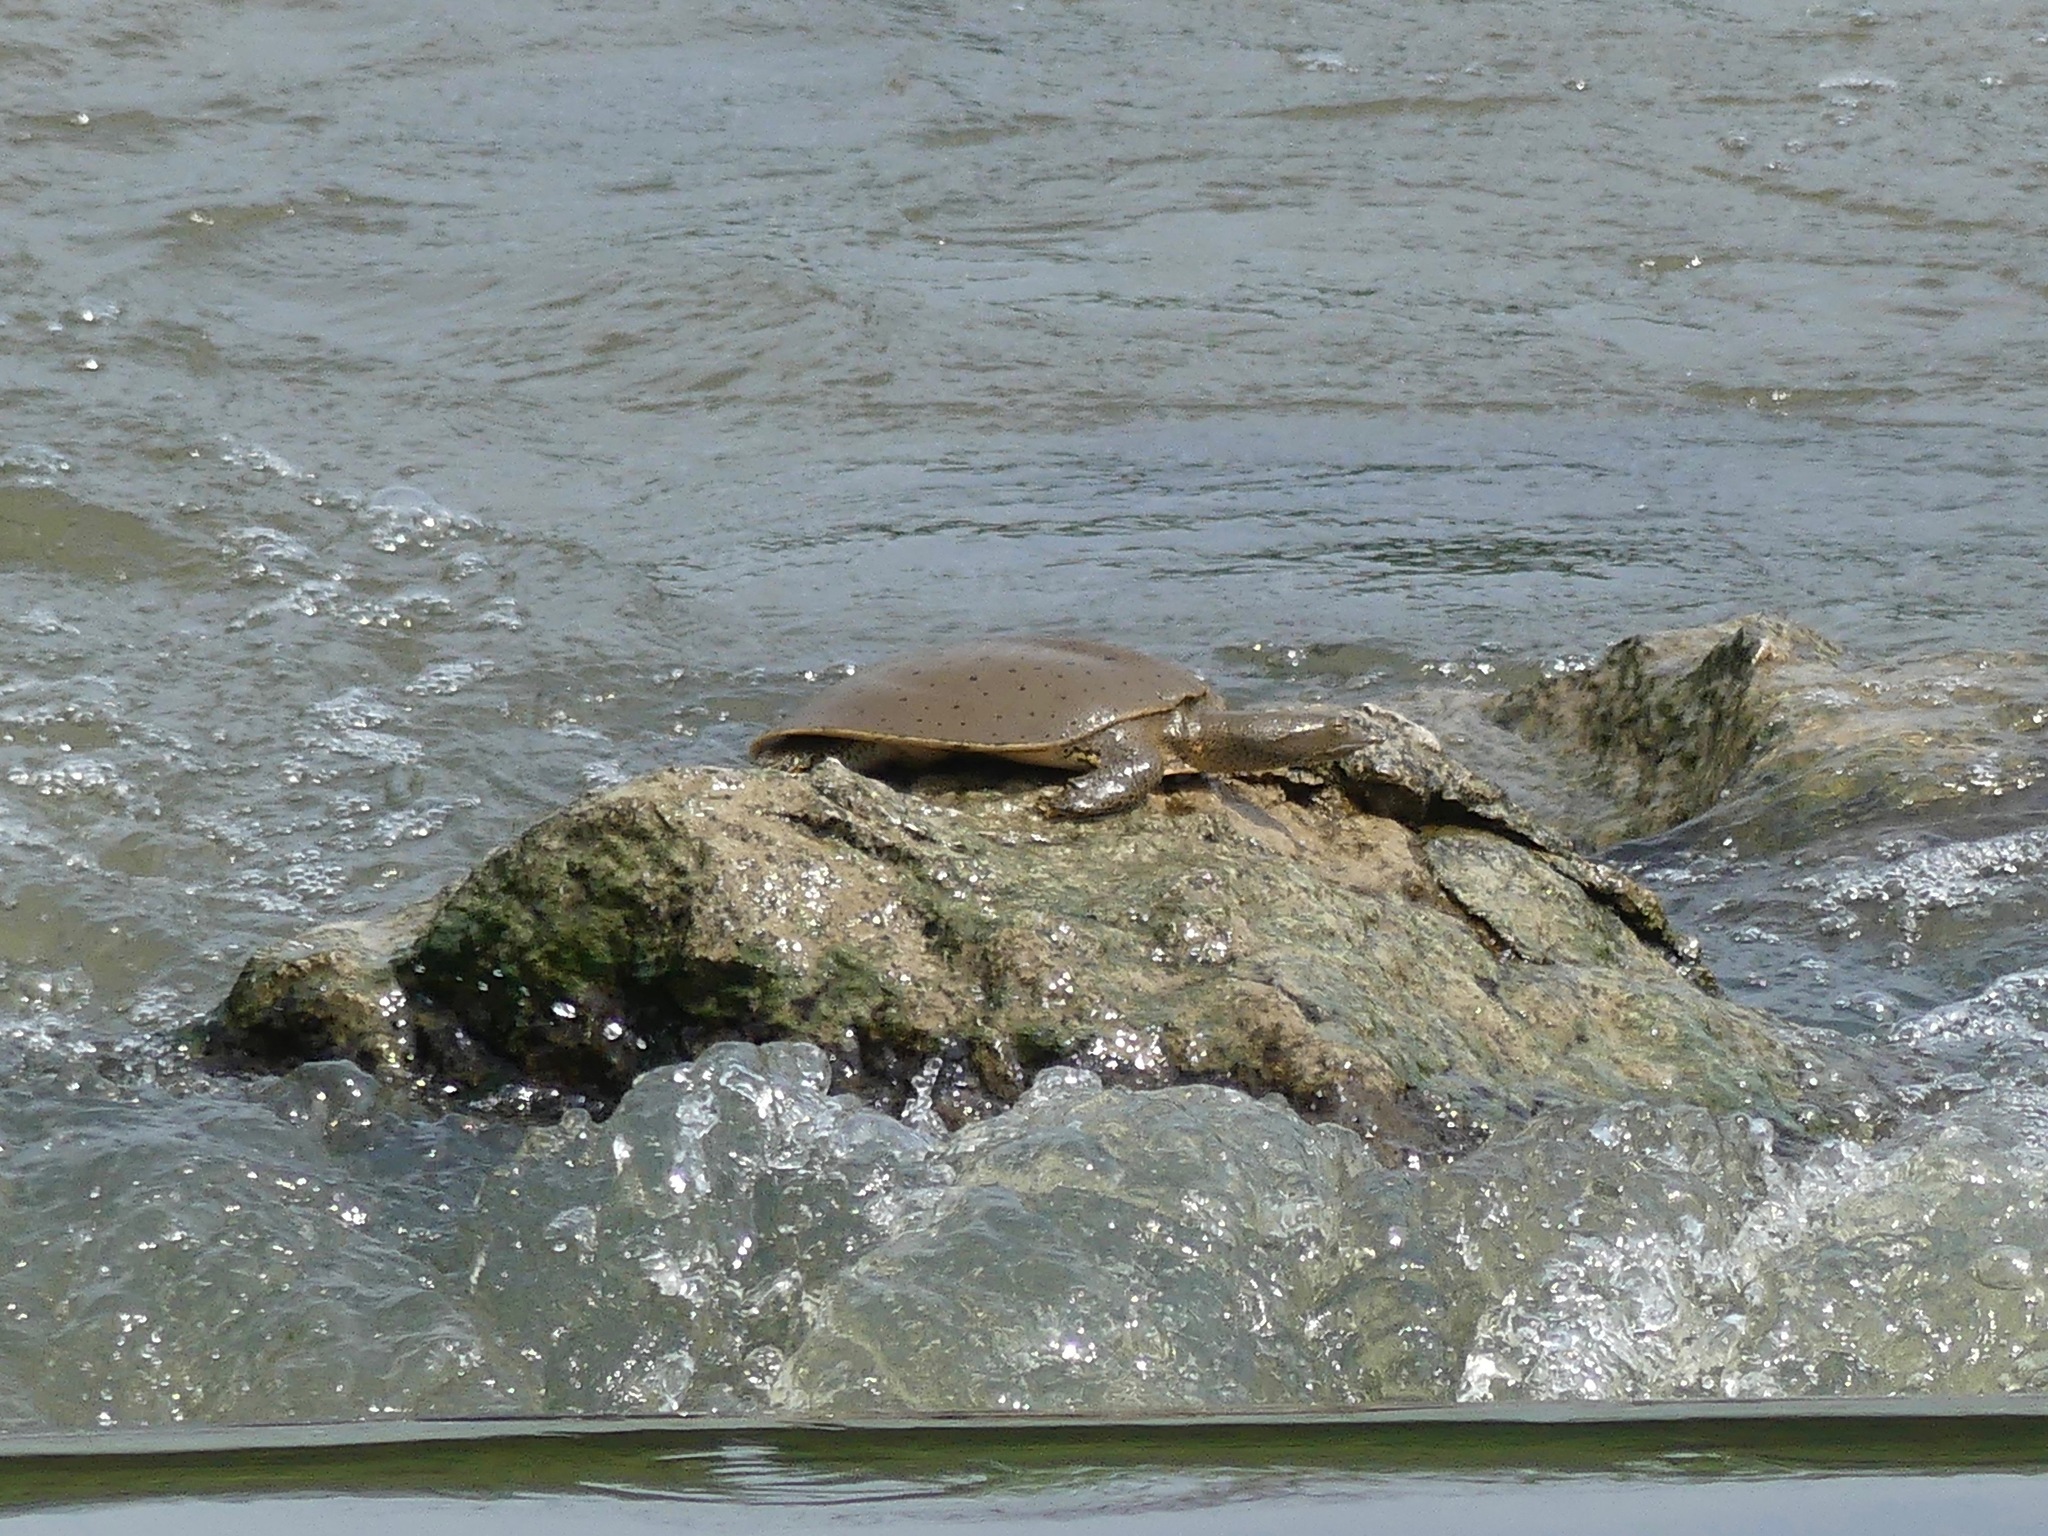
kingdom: Animalia
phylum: Chordata
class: Testudines
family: Trionychidae
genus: Apalone
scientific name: Apalone spinifera
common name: Spiny softshell turtle
